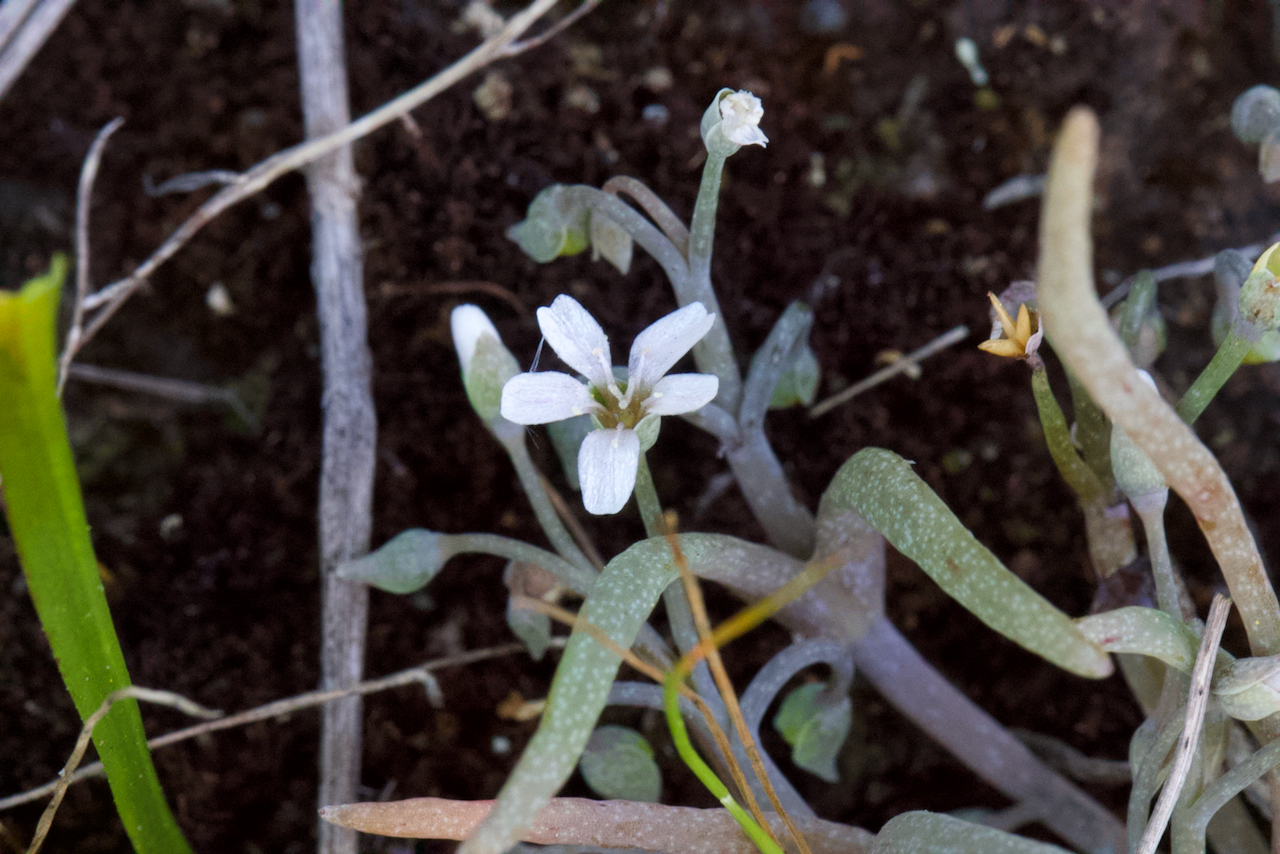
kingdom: Plantae
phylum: Tracheophyta
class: Magnoliopsida
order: Caryophyllales
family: Montiaceae
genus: Claytonia
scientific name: Claytonia exigua
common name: Pale spring beauty
